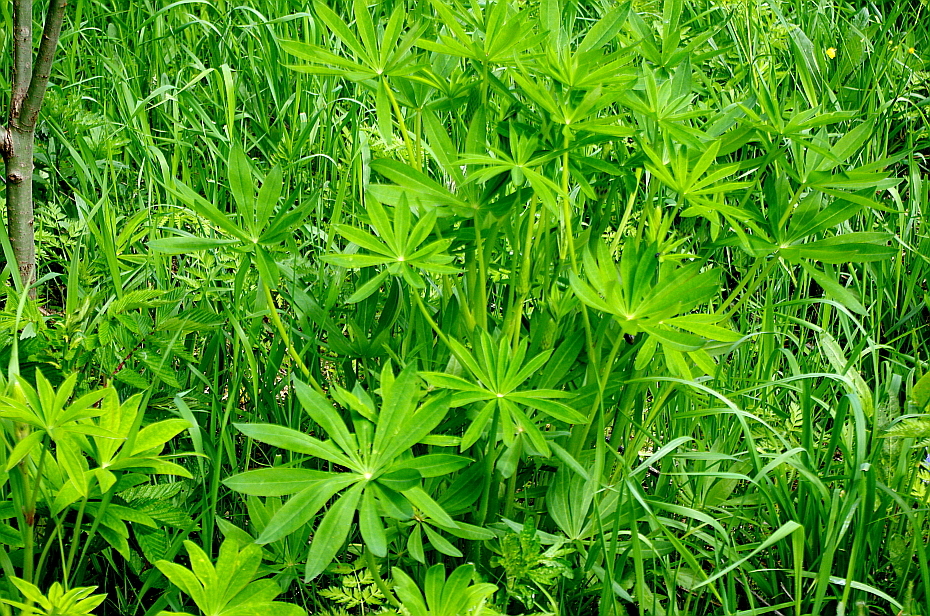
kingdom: Plantae
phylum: Tracheophyta
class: Magnoliopsida
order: Fabales
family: Fabaceae
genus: Lupinus
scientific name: Lupinus polyphyllus
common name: Garden lupin
